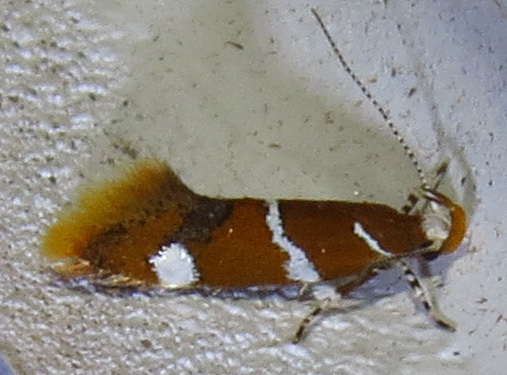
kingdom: Animalia
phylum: Arthropoda
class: Insecta
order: Lepidoptera
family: Oecophoridae
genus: Promalactis
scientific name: Promalactis suzukiella
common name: Moth
